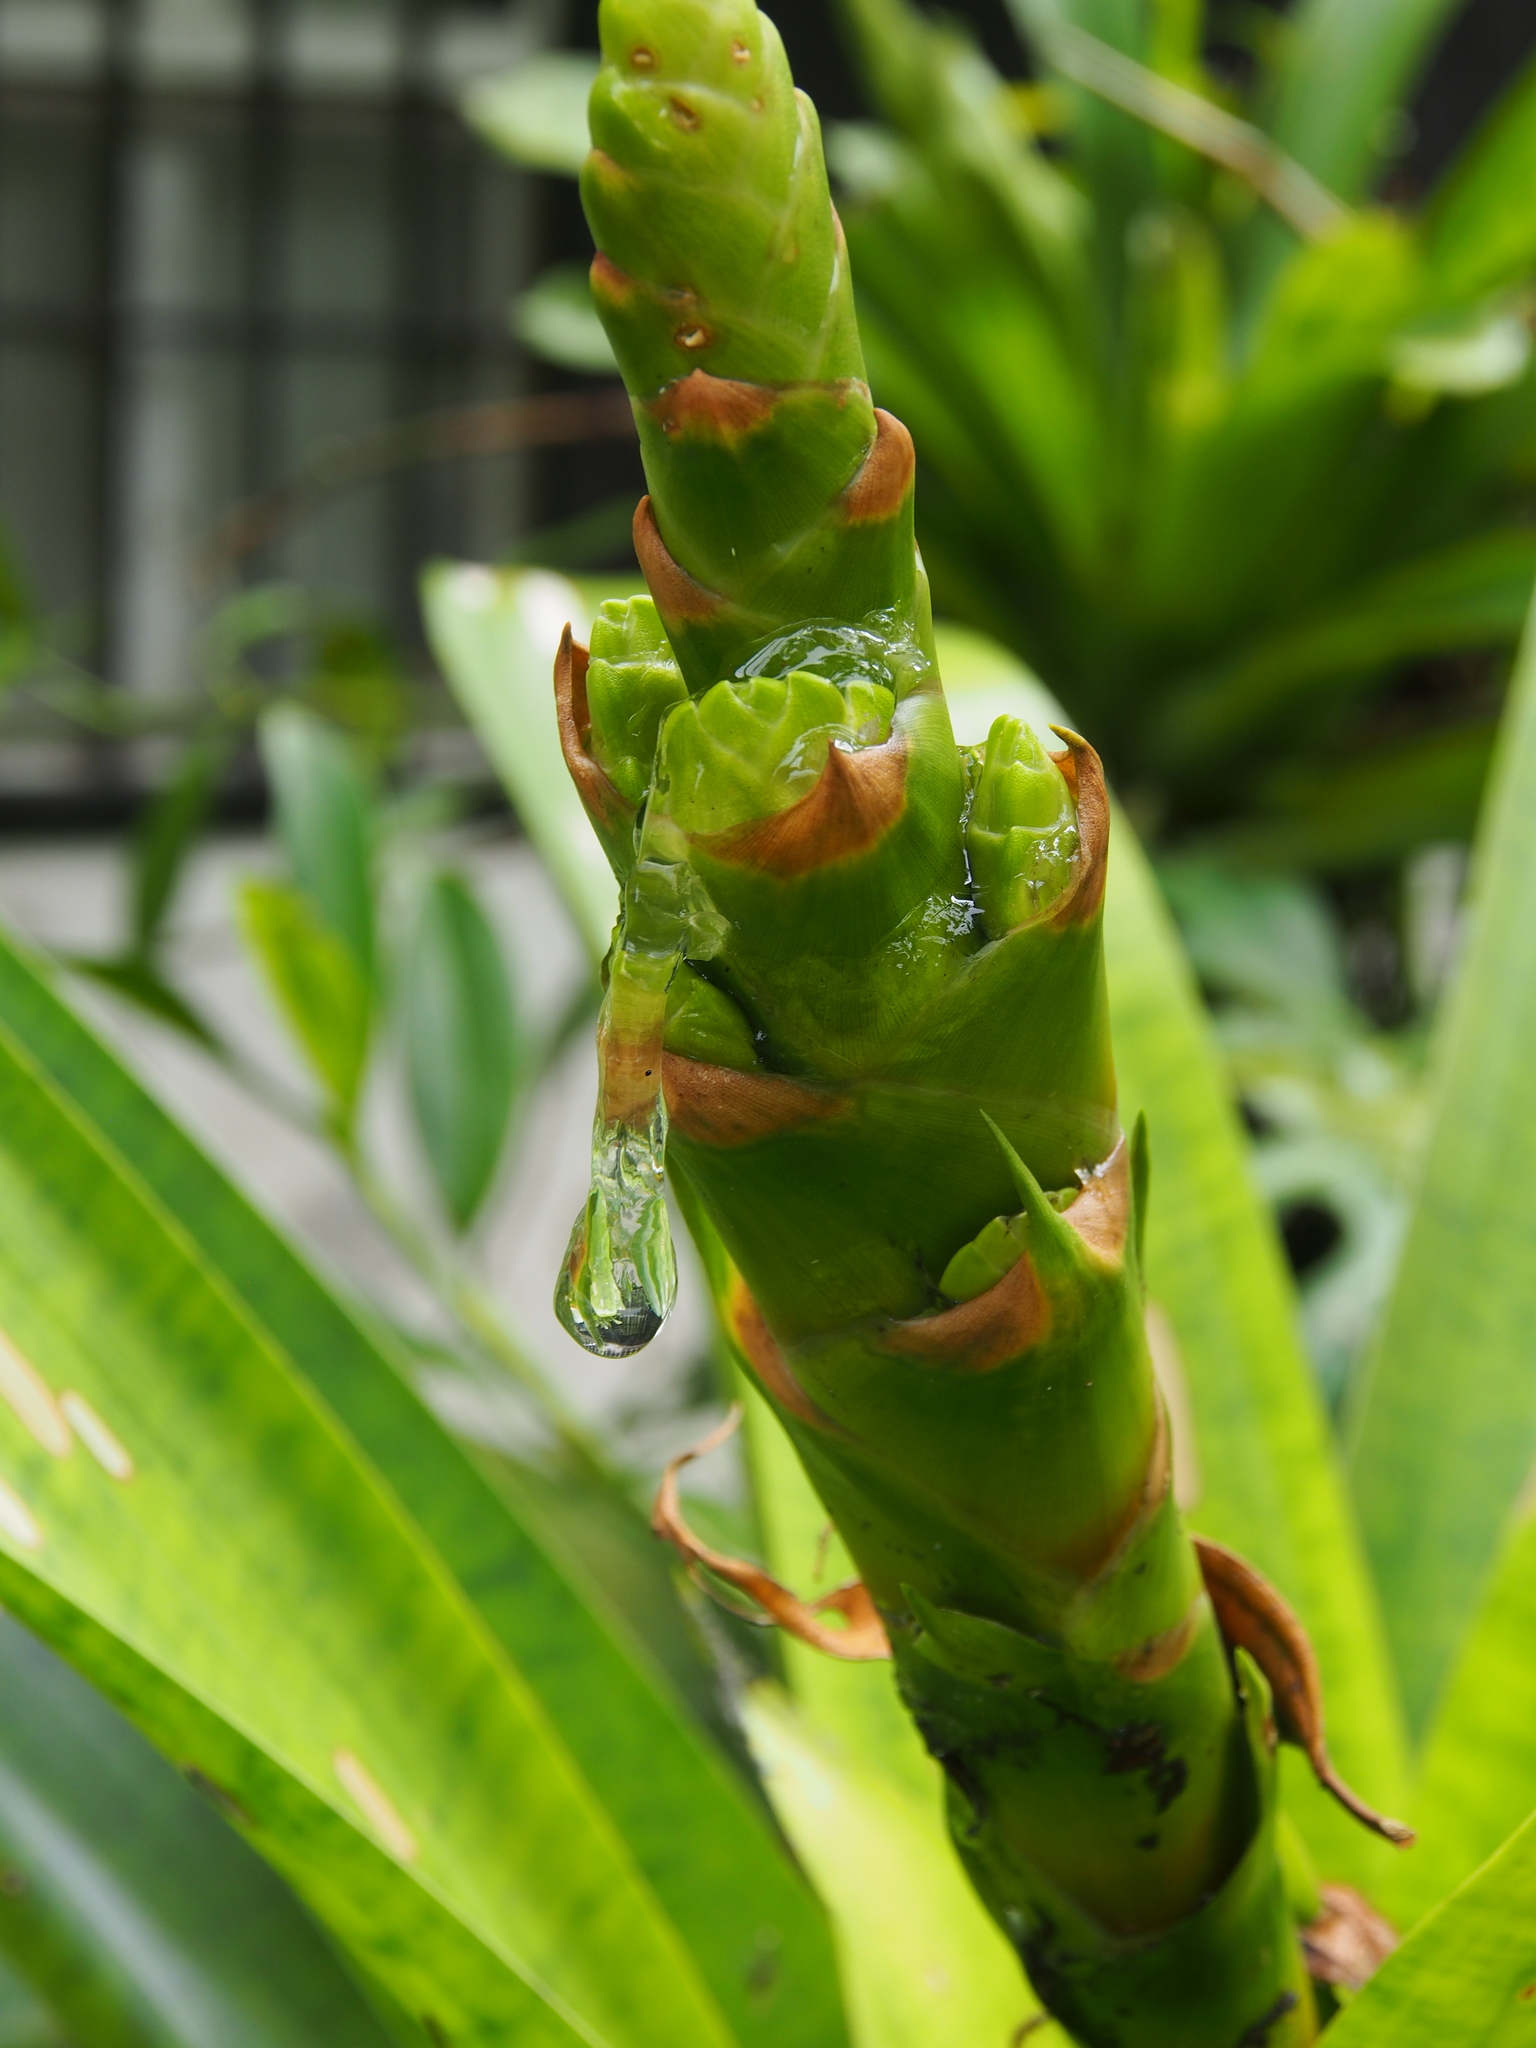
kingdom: Plantae
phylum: Tracheophyta
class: Liliopsida
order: Poales
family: Bromeliaceae
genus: Werauhia
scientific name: Werauhia kupperiana
